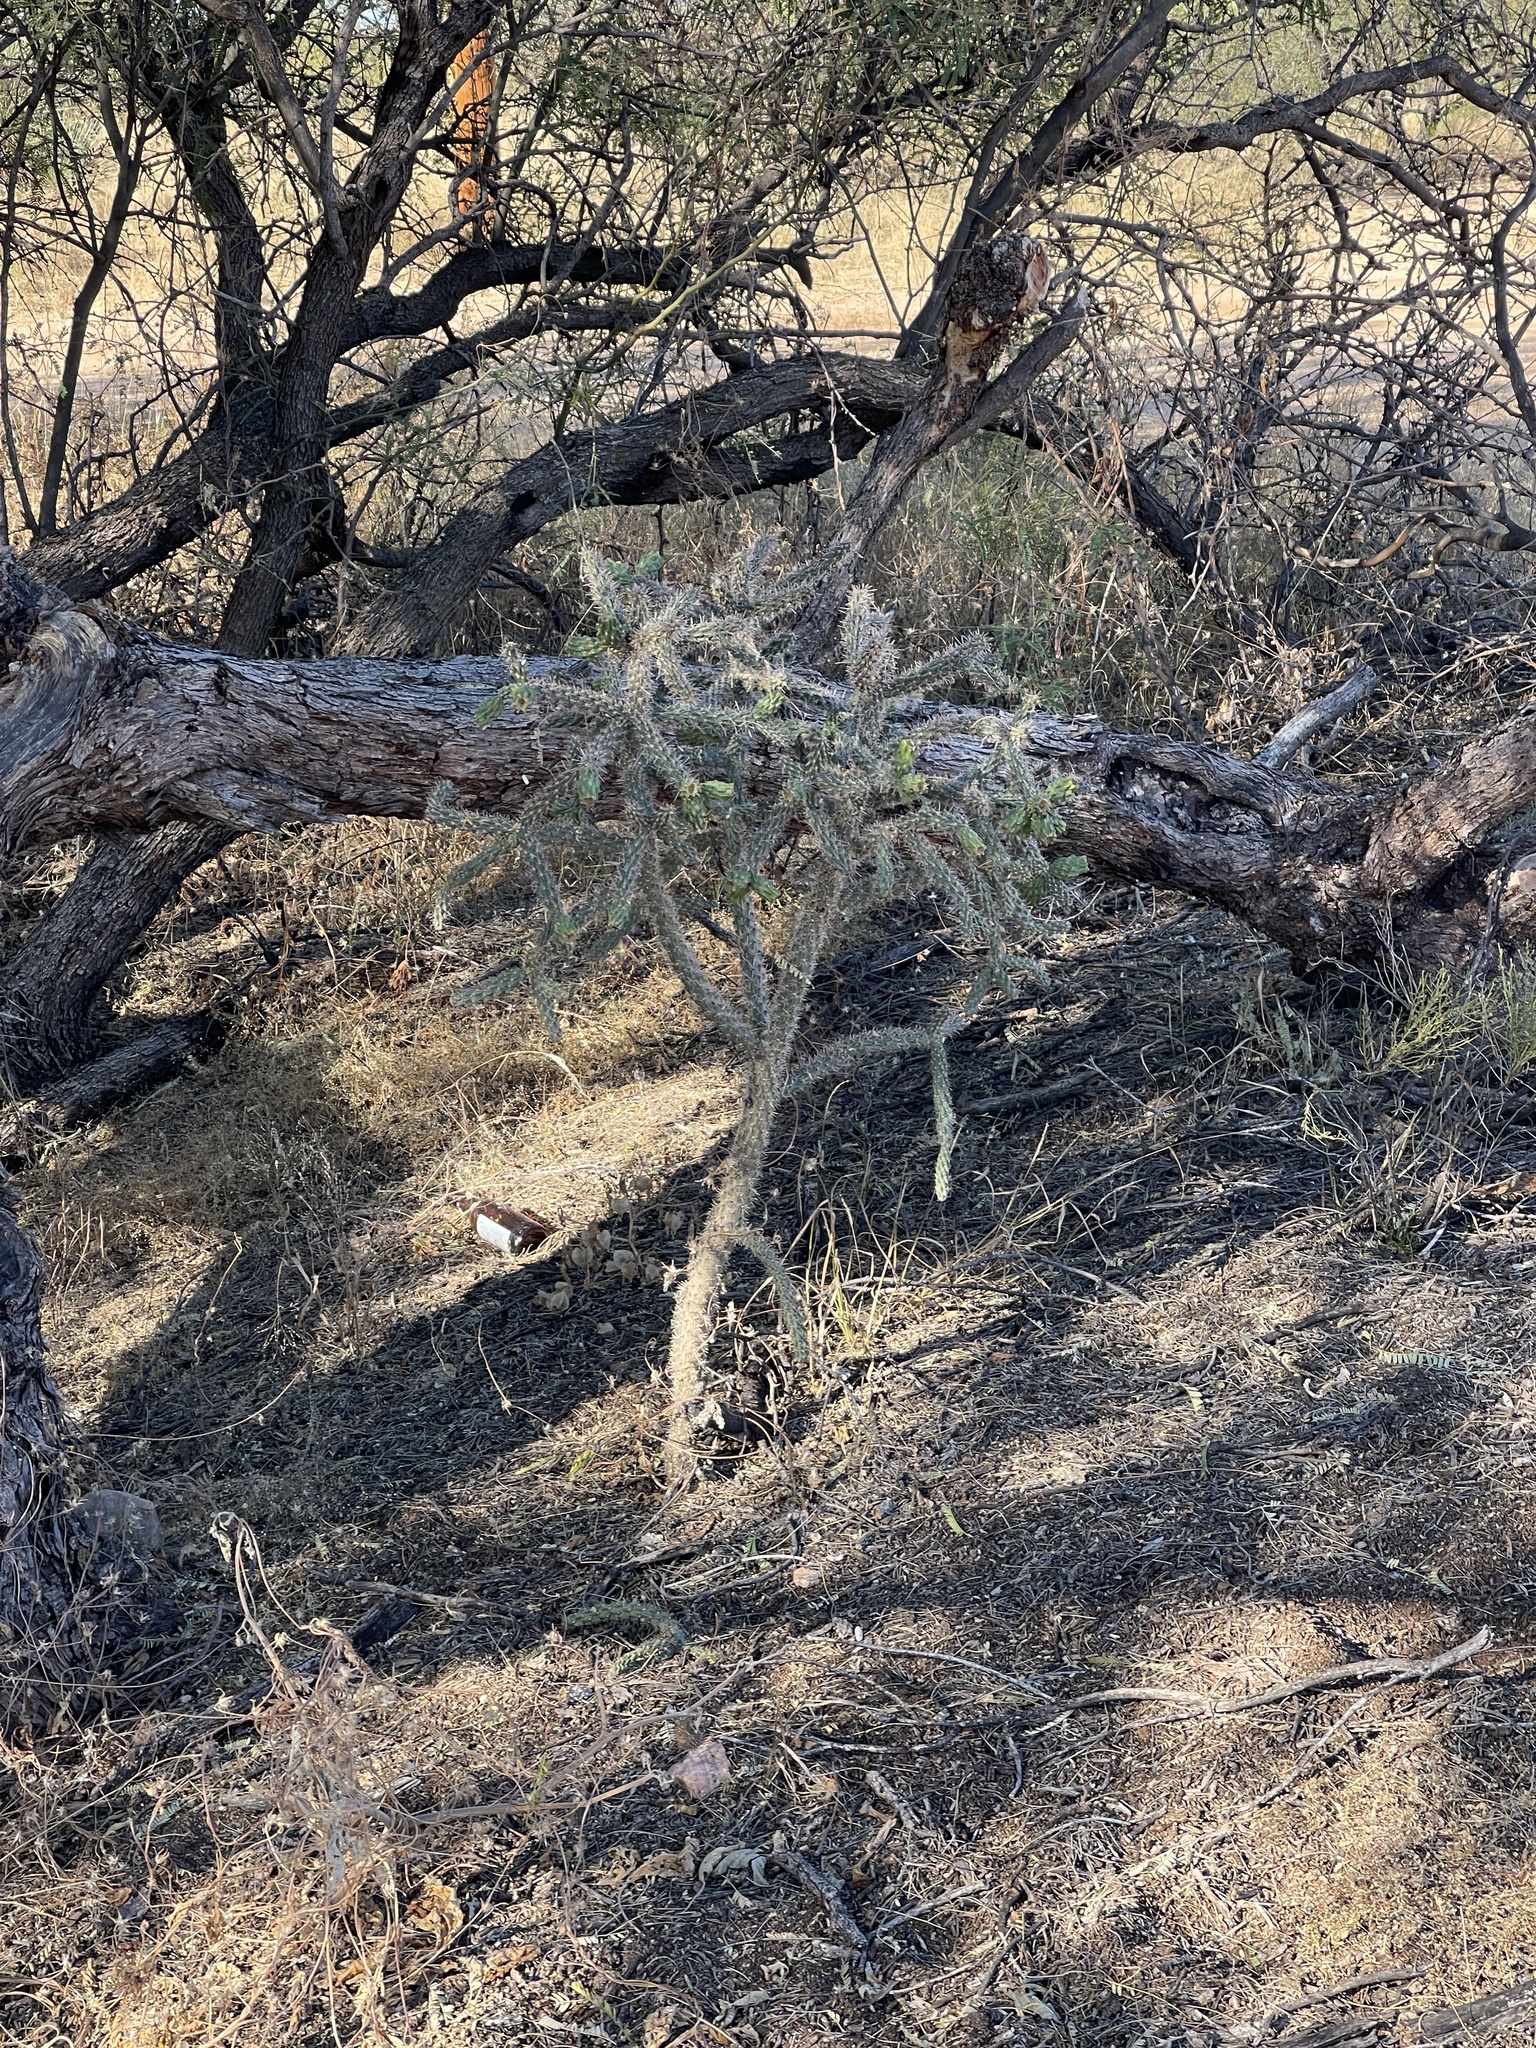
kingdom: Plantae
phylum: Tracheophyta
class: Magnoliopsida
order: Caryophyllales
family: Cactaceae
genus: Cylindropuntia
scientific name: Cylindropuntia imbricata
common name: Candelabrum cactus
